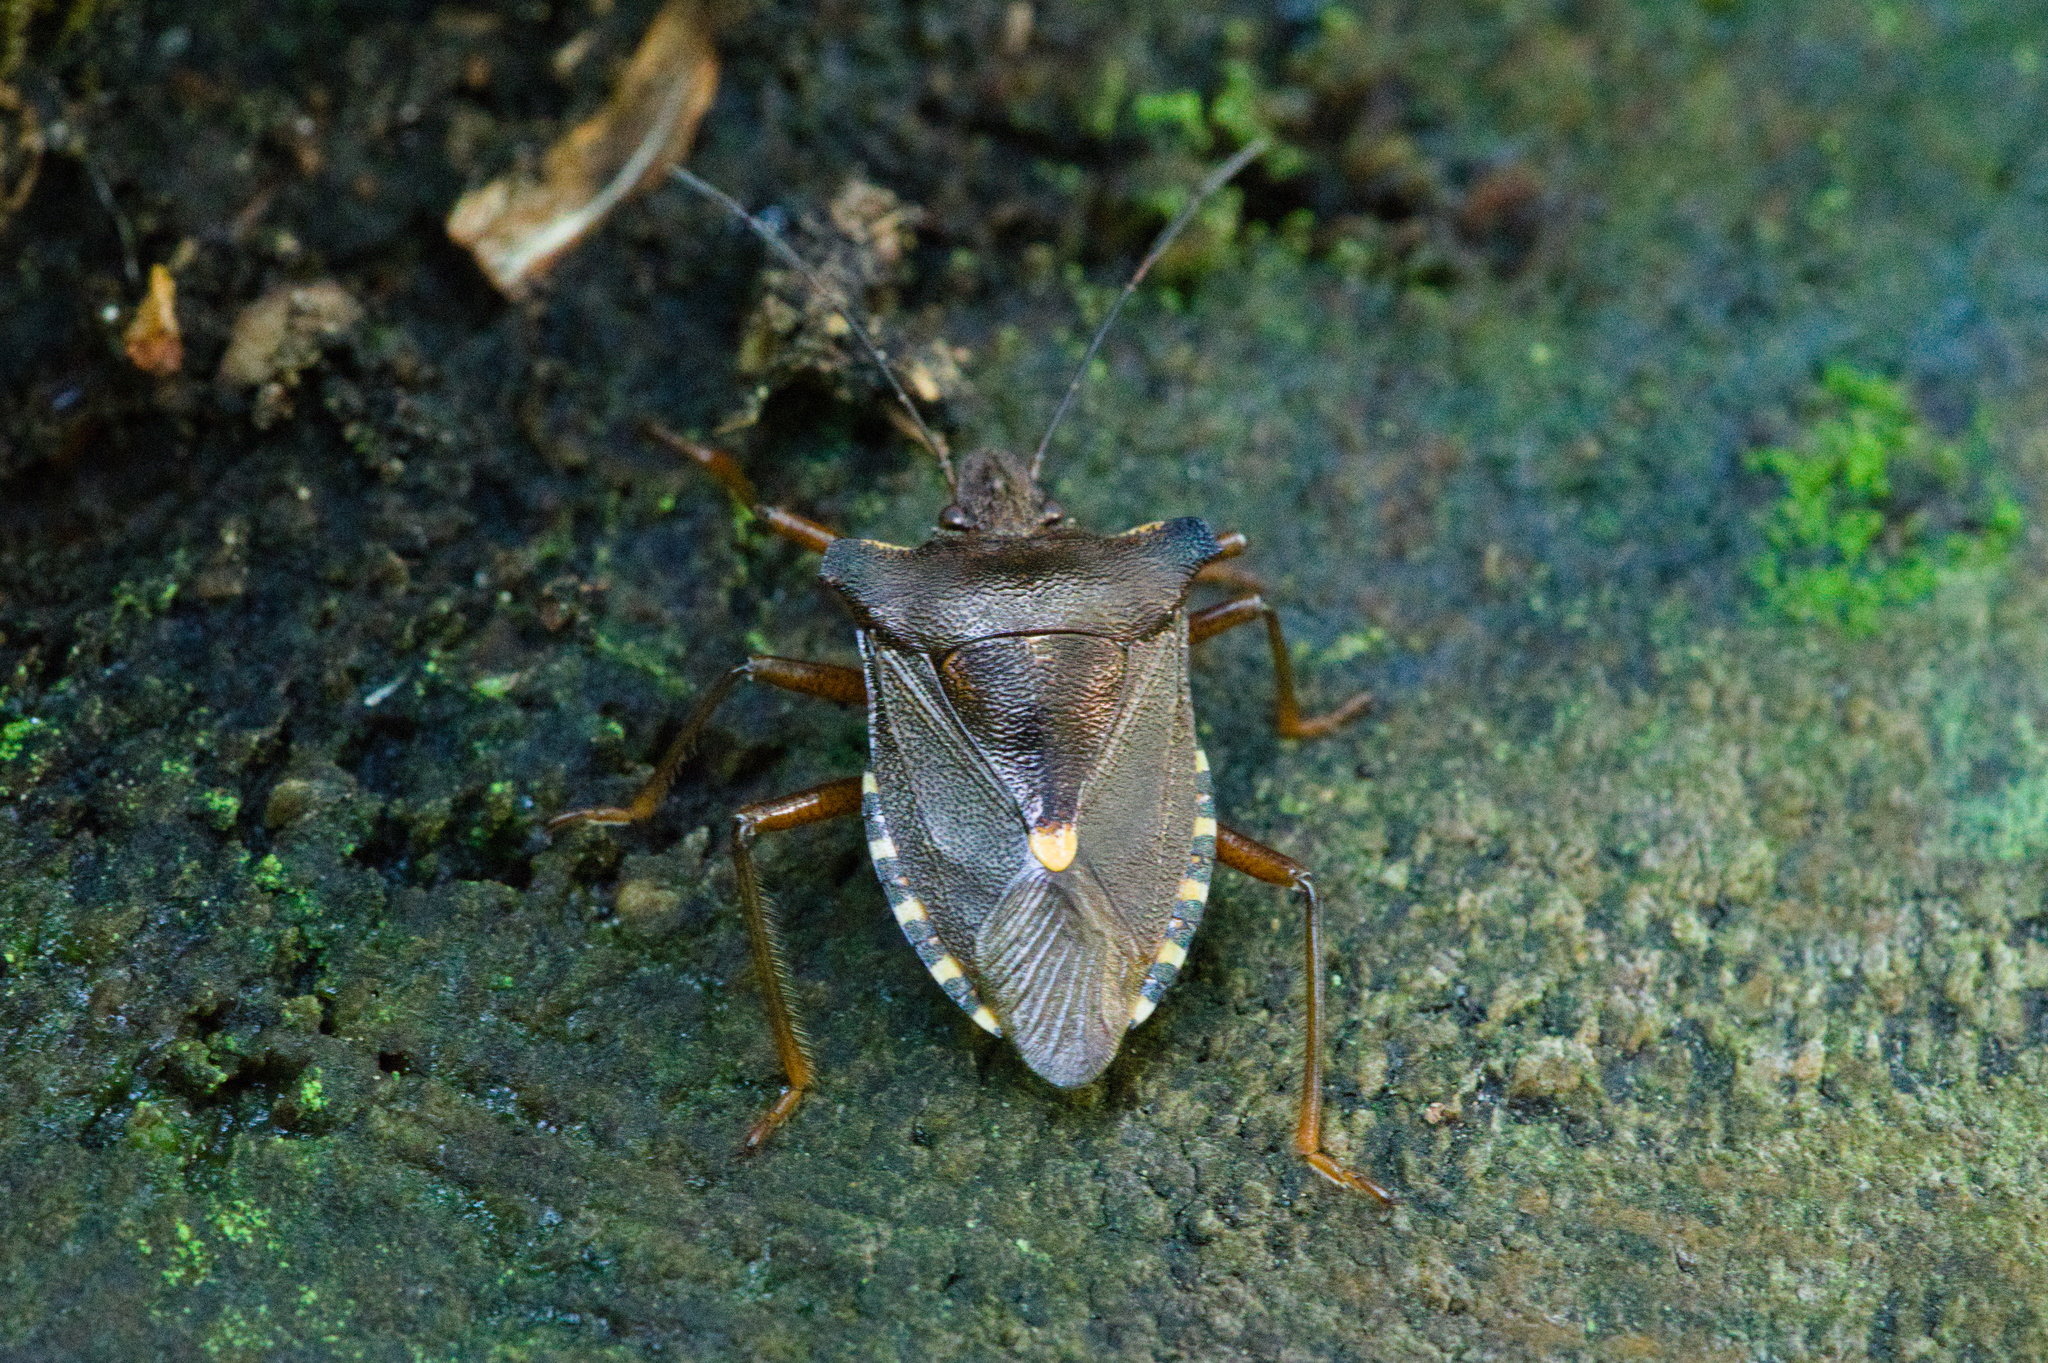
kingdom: Animalia
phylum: Arthropoda
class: Insecta
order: Hemiptera
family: Pentatomidae
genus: Pentatoma
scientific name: Pentatoma rufipes
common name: Forest bug
